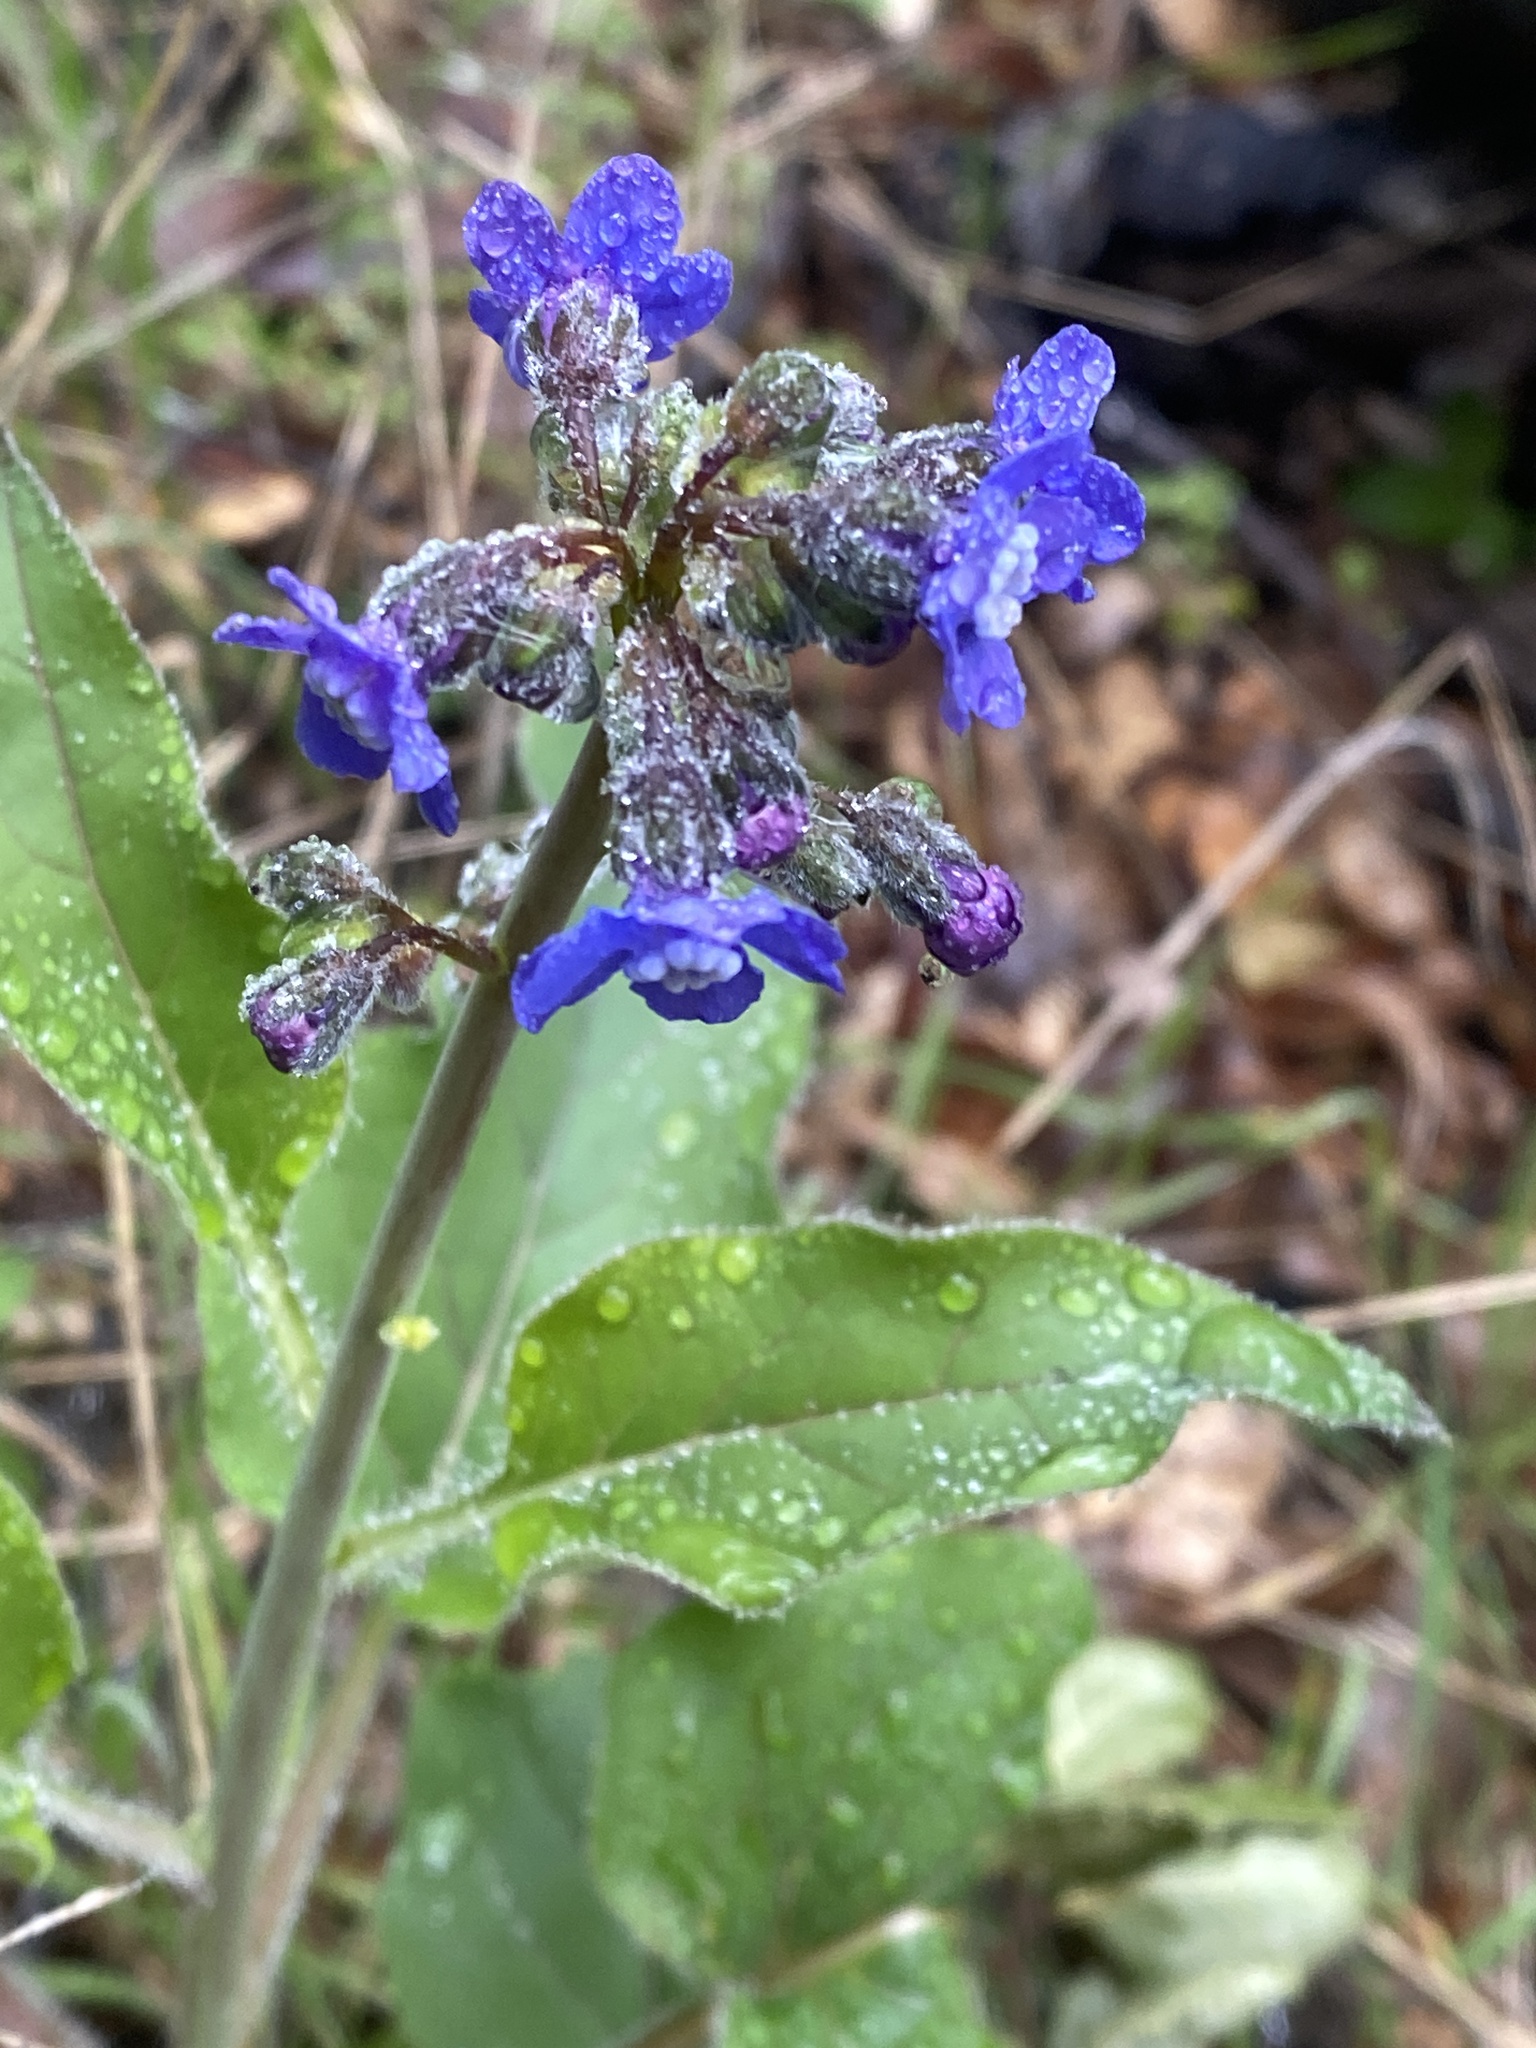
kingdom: Plantae
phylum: Tracheophyta
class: Magnoliopsida
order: Boraginales
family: Boraginaceae
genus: Adelinia
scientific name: Adelinia grande
